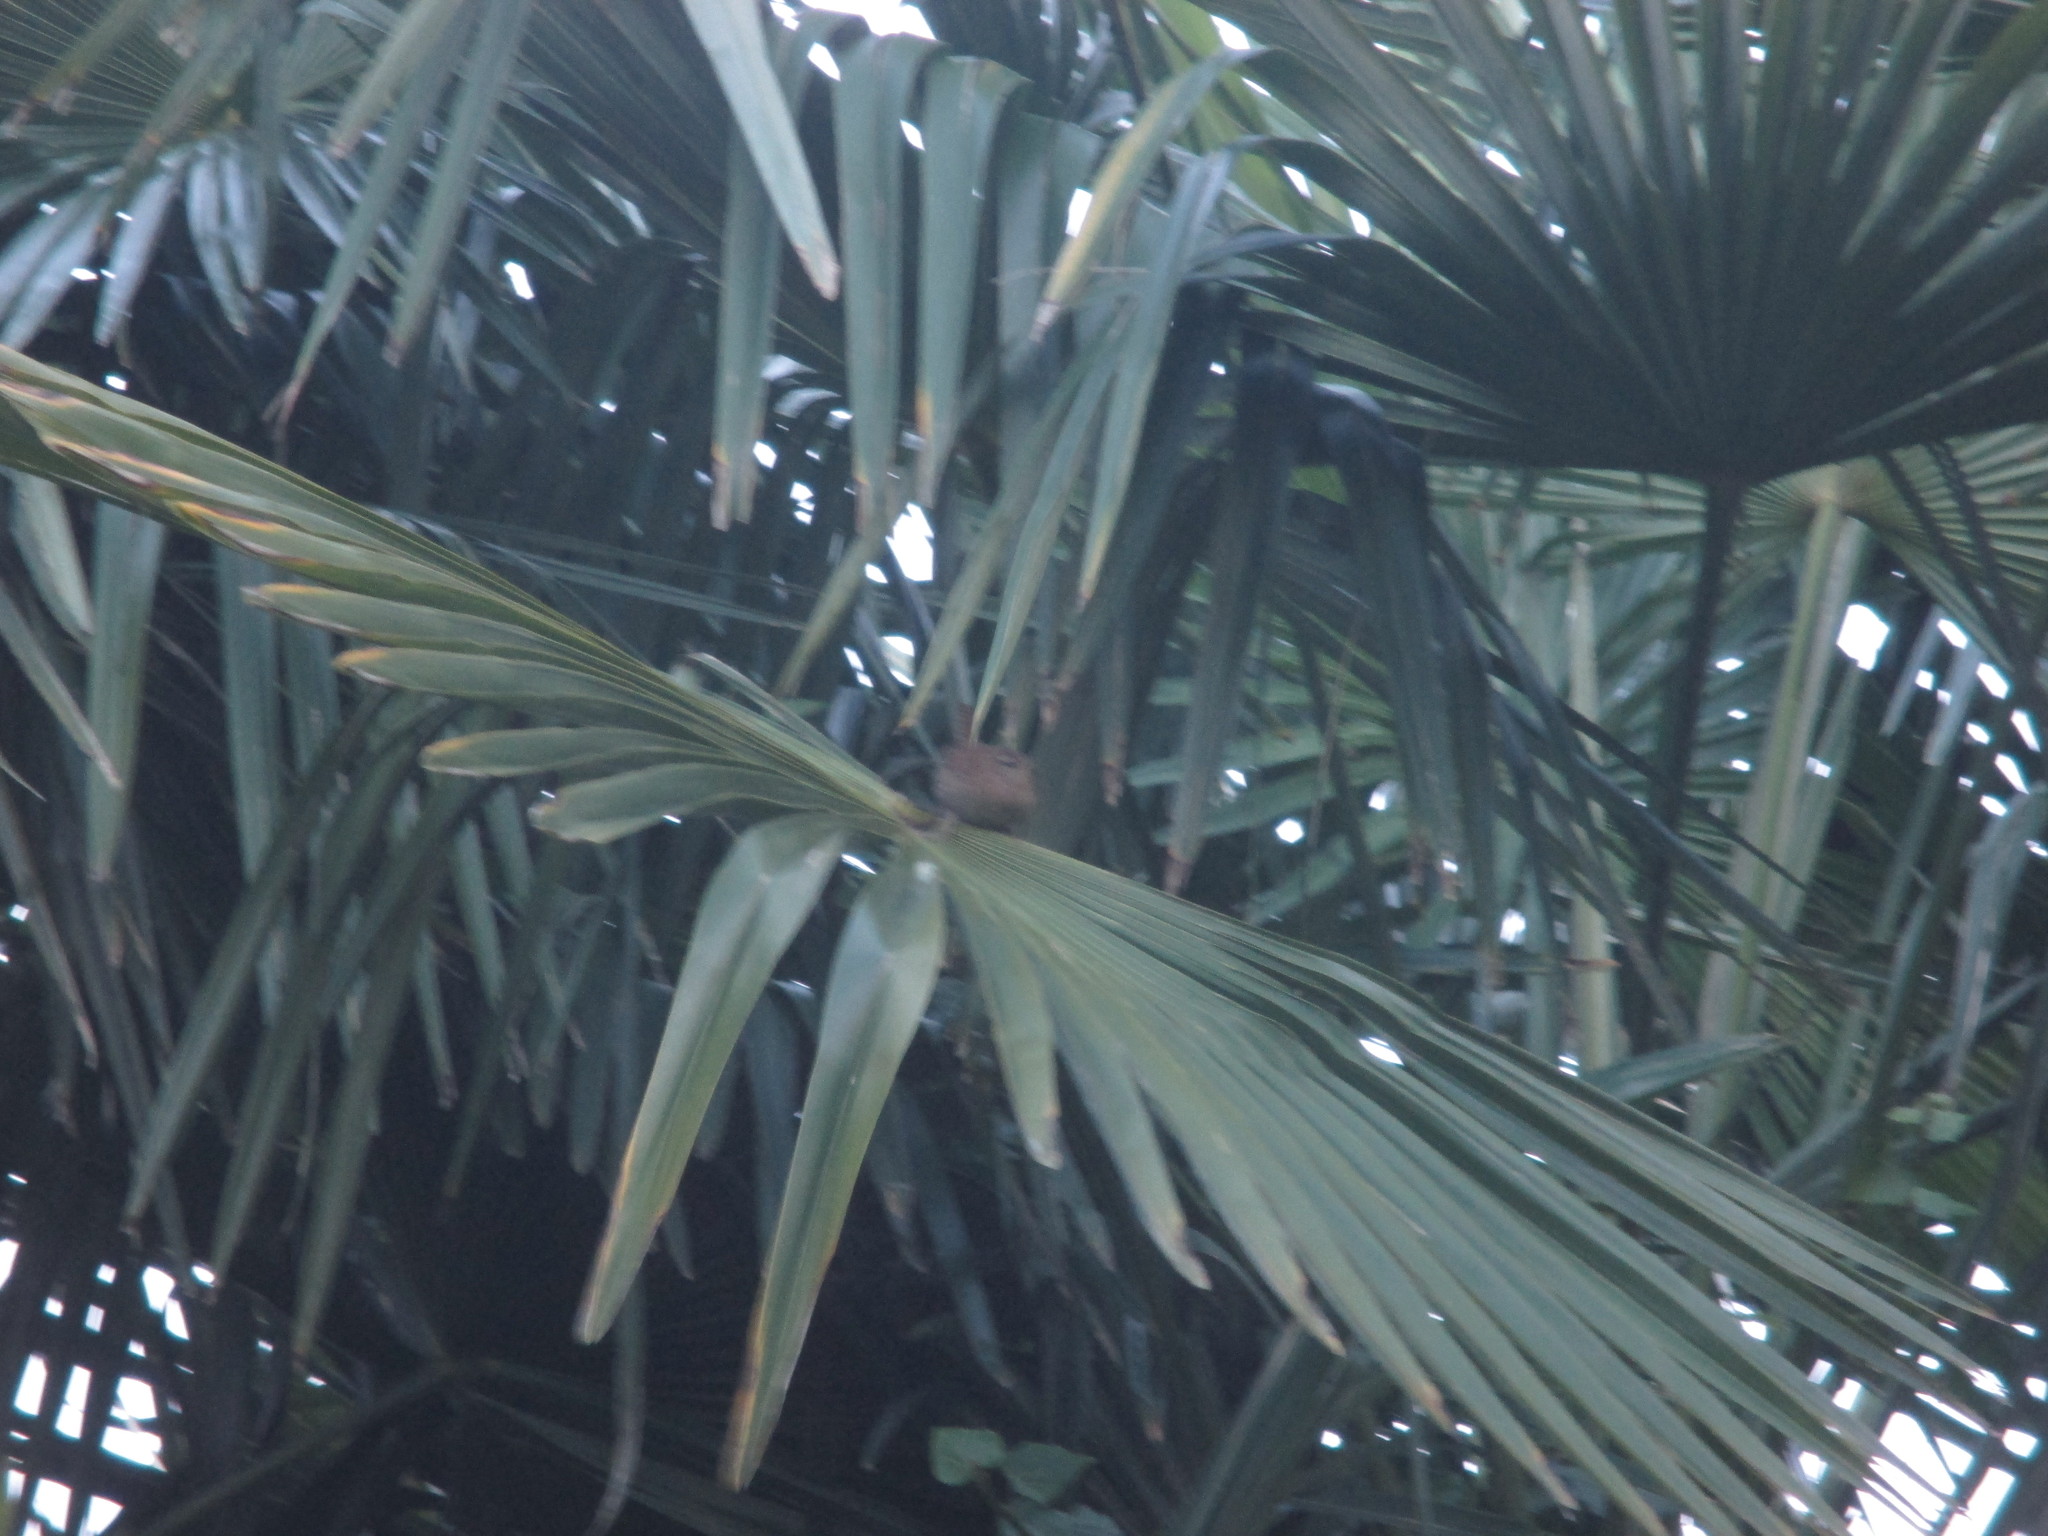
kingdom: Animalia
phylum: Chordata
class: Aves
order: Passeriformes
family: Troglodytidae
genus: Troglodytes
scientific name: Troglodytes troglodytes
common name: Eurasian wren
